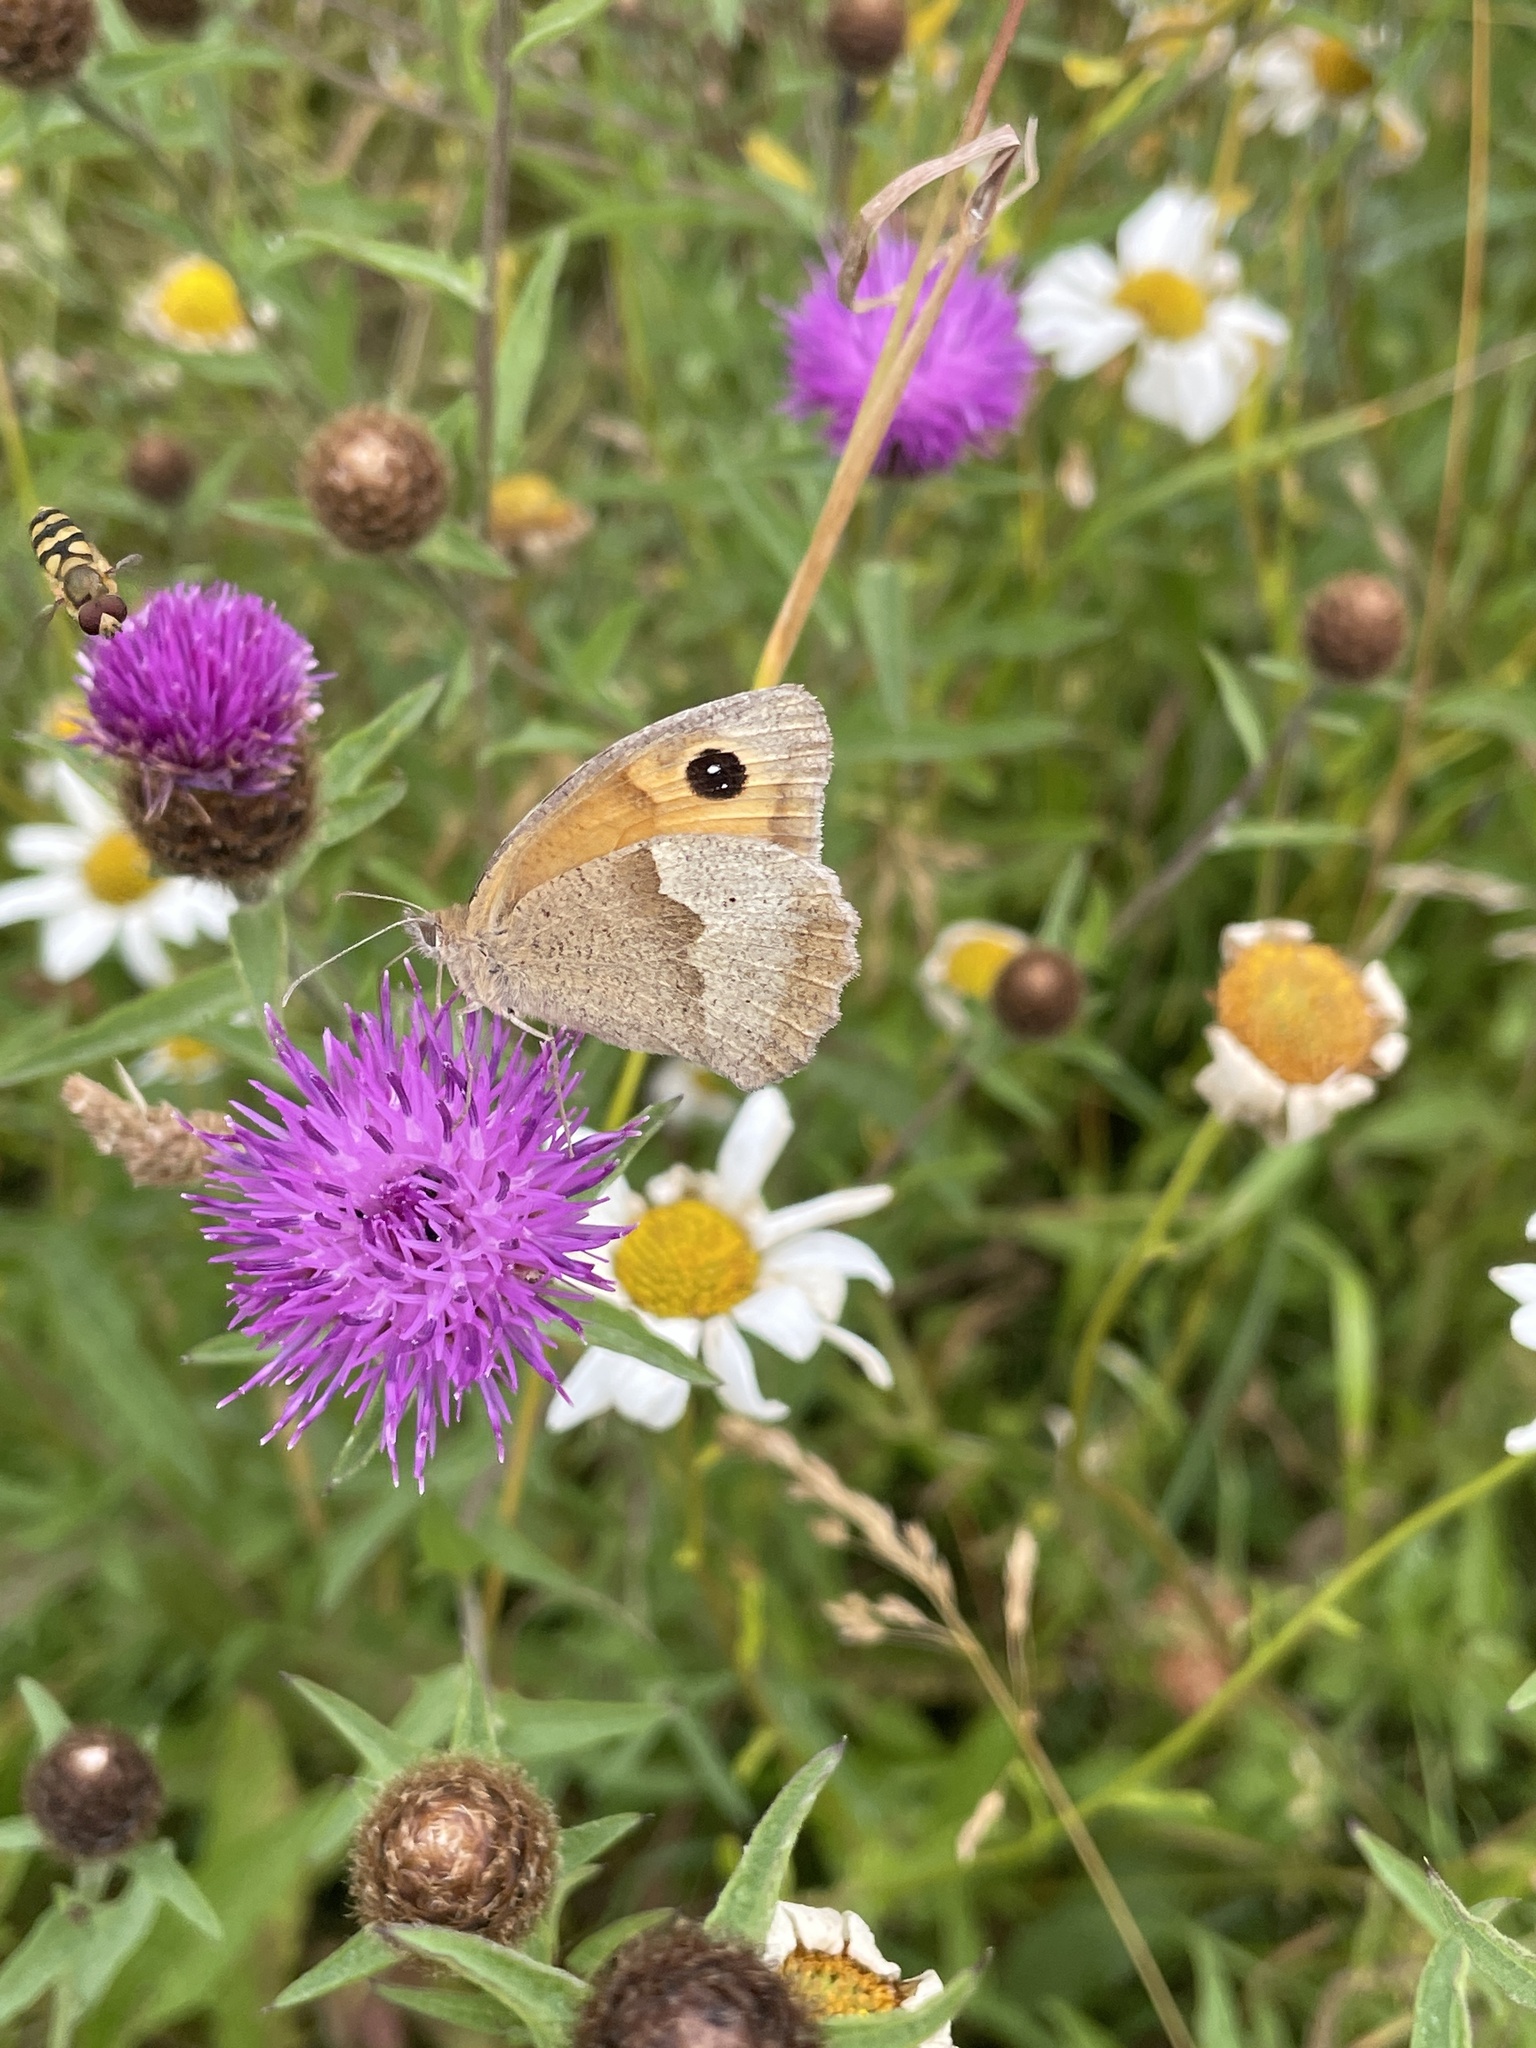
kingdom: Animalia
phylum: Arthropoda
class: Insecta
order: Lepidoptera
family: Nymphalidae
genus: Maniola
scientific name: Maniola jurtina
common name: Meadow brown
